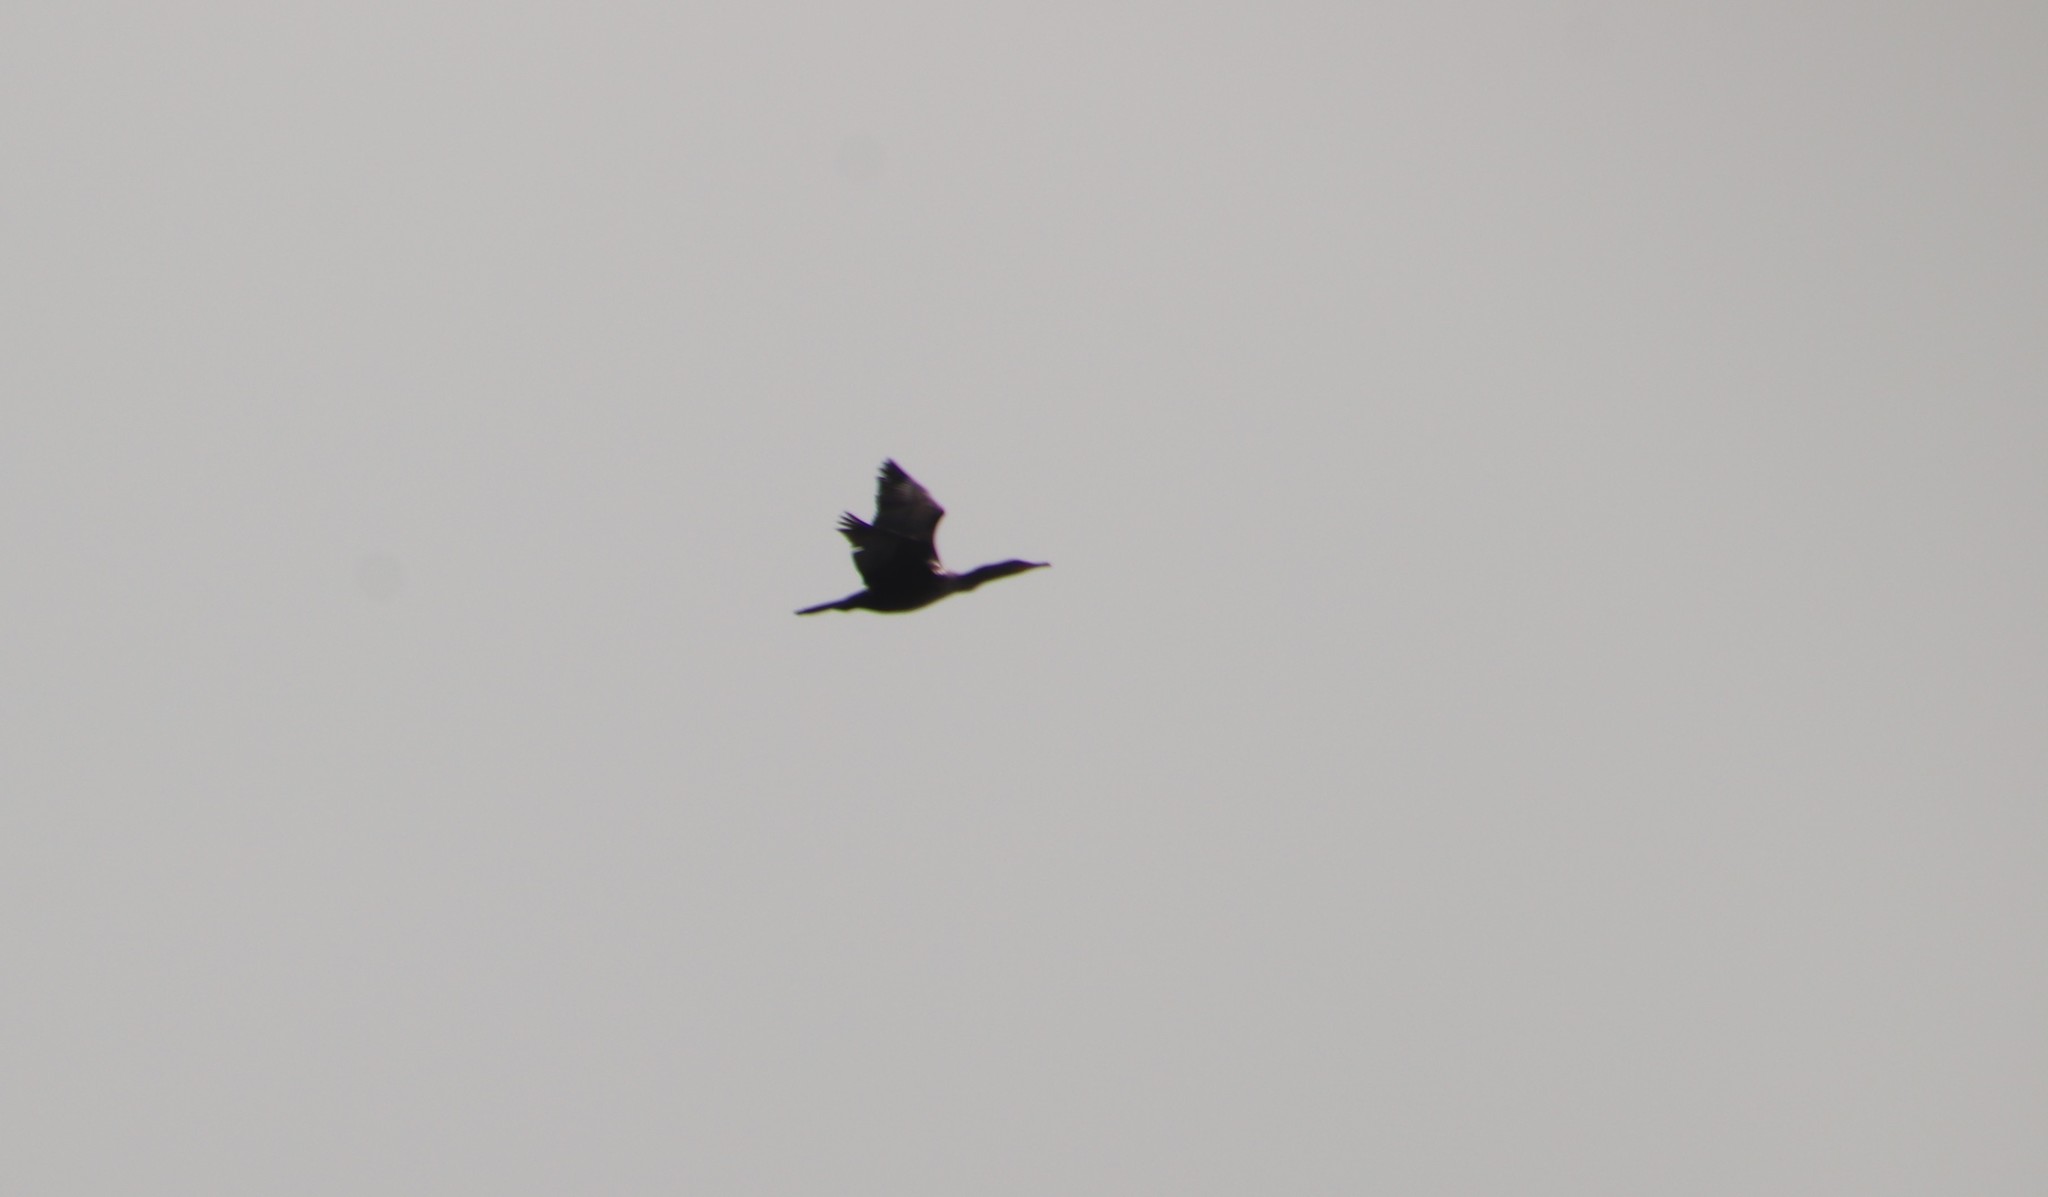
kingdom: Animalia
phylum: Chordata
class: Aves
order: Suliformes
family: Phalacrocoracidae
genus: Phalacrocorax
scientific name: Phalacrocorax auritus
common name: Double-crested cormorant
